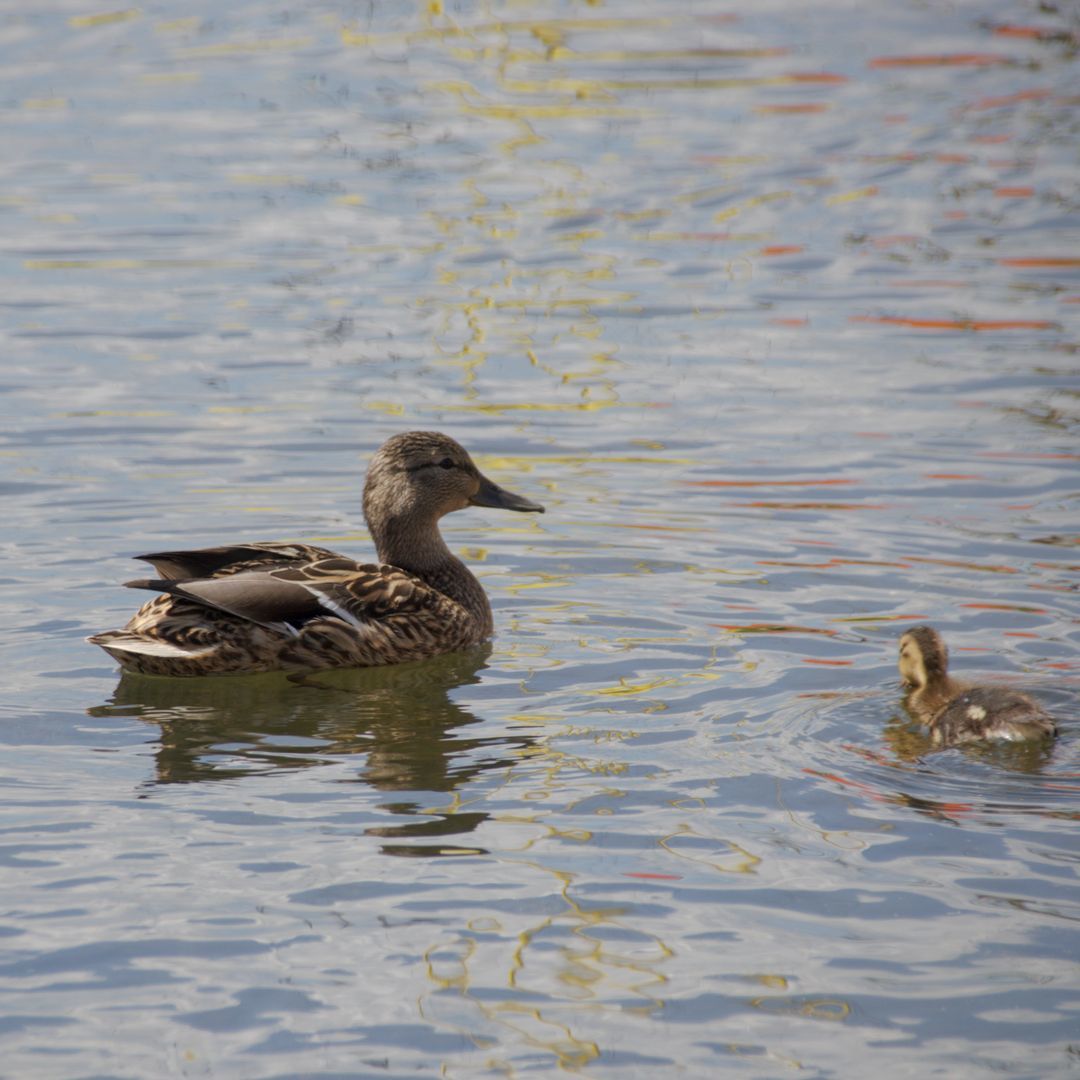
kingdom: Animalia
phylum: Chordata
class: Aves
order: Anseriformes
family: Anatidae
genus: Anas
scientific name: Anas platyrhynchos
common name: Mallard
